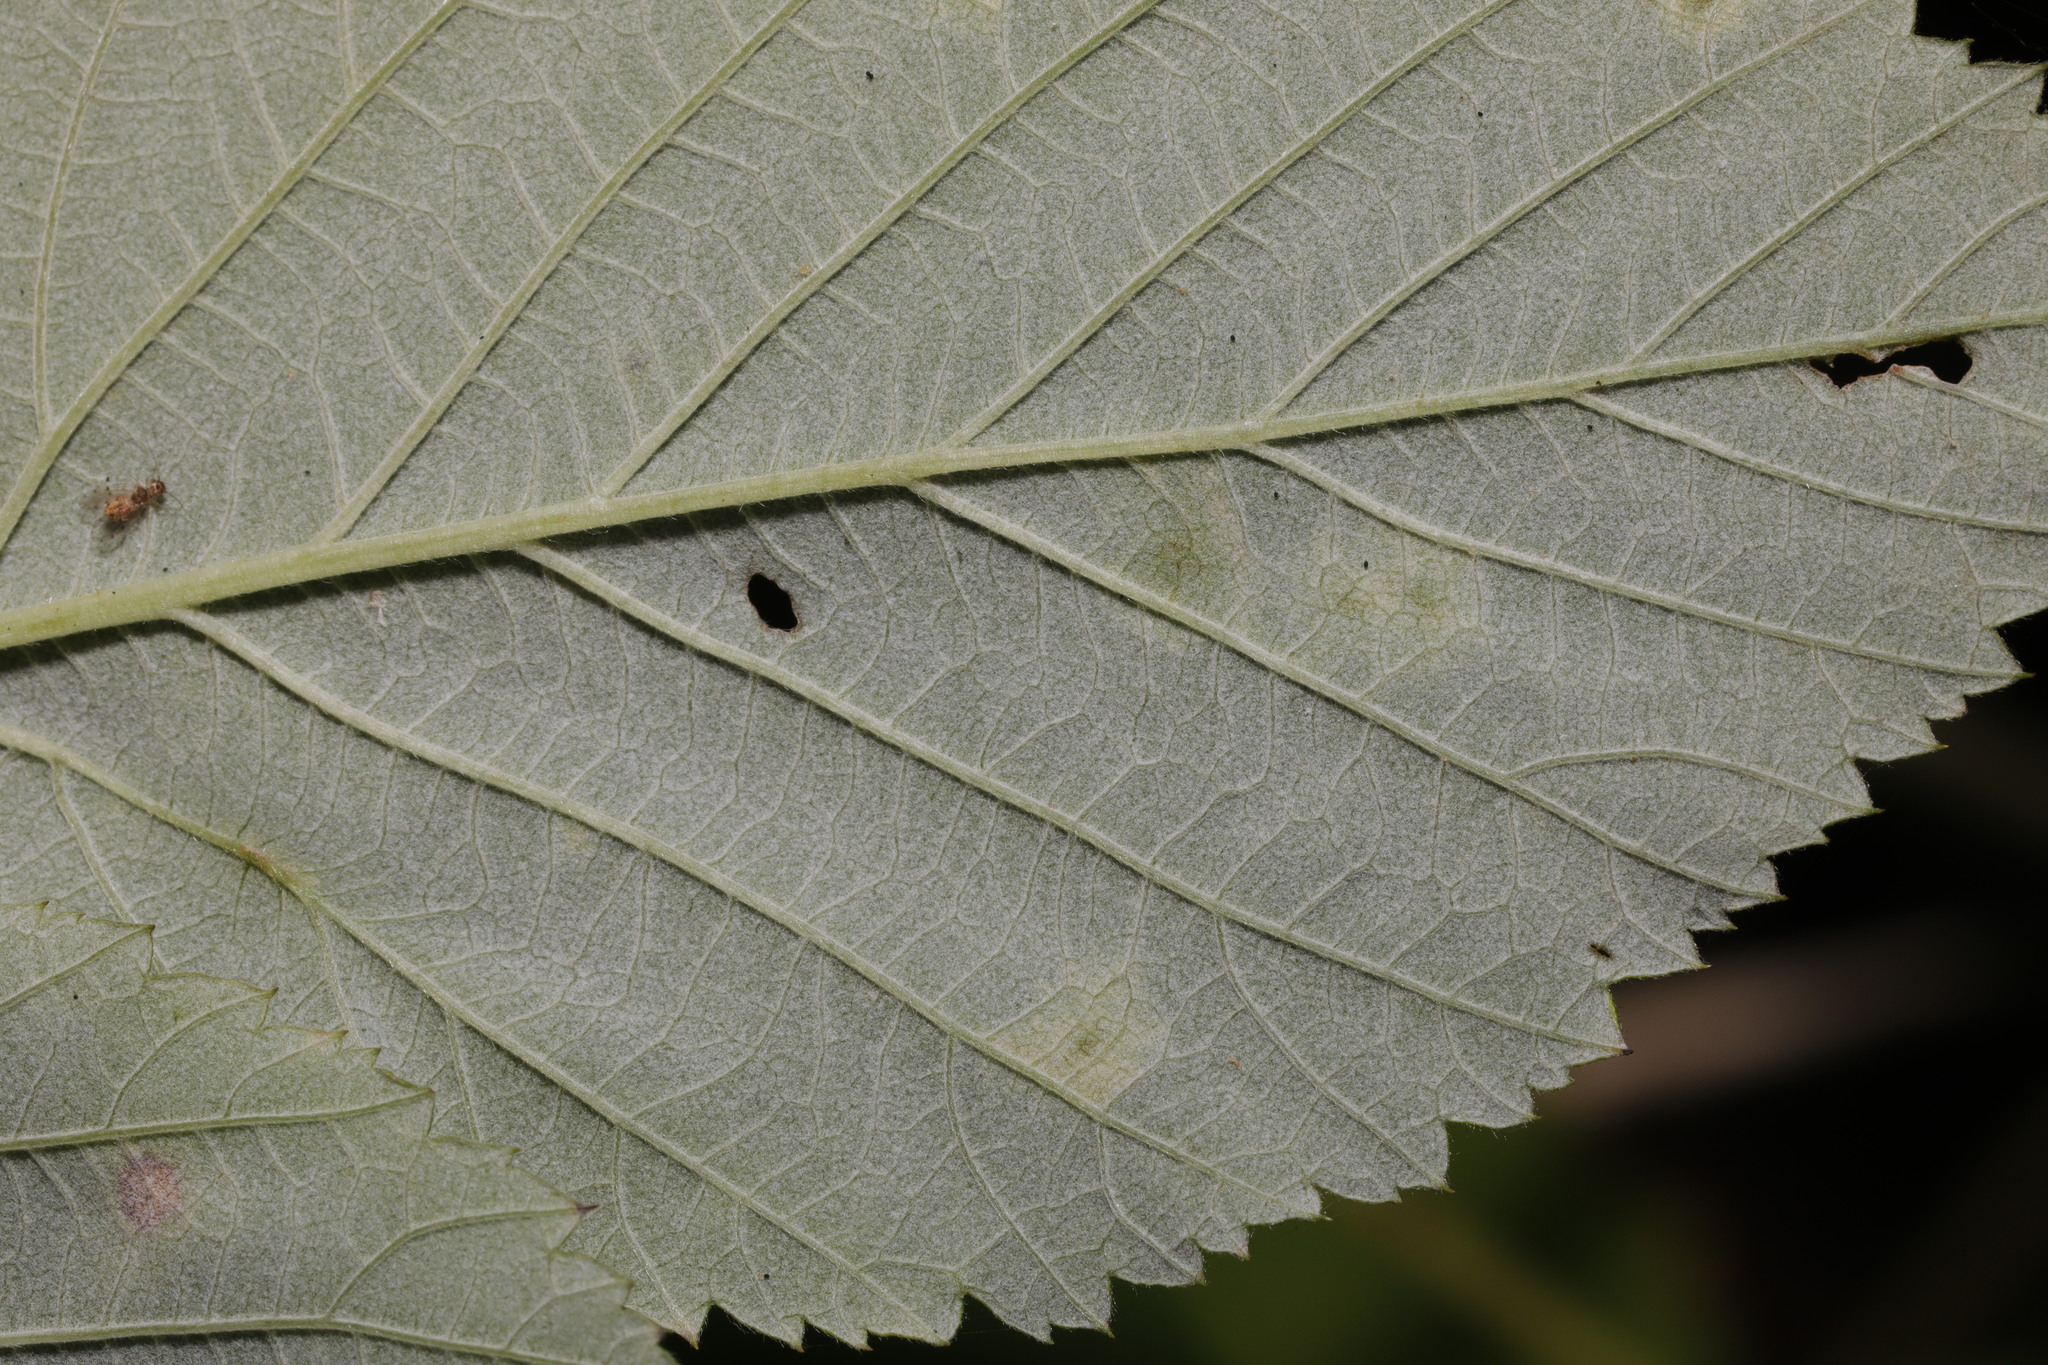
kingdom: Chromista
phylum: Oomycota
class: Peronosporea
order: Peronosporales
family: Peronosporaceae
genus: Peronospora
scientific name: Peronospora crustosa
